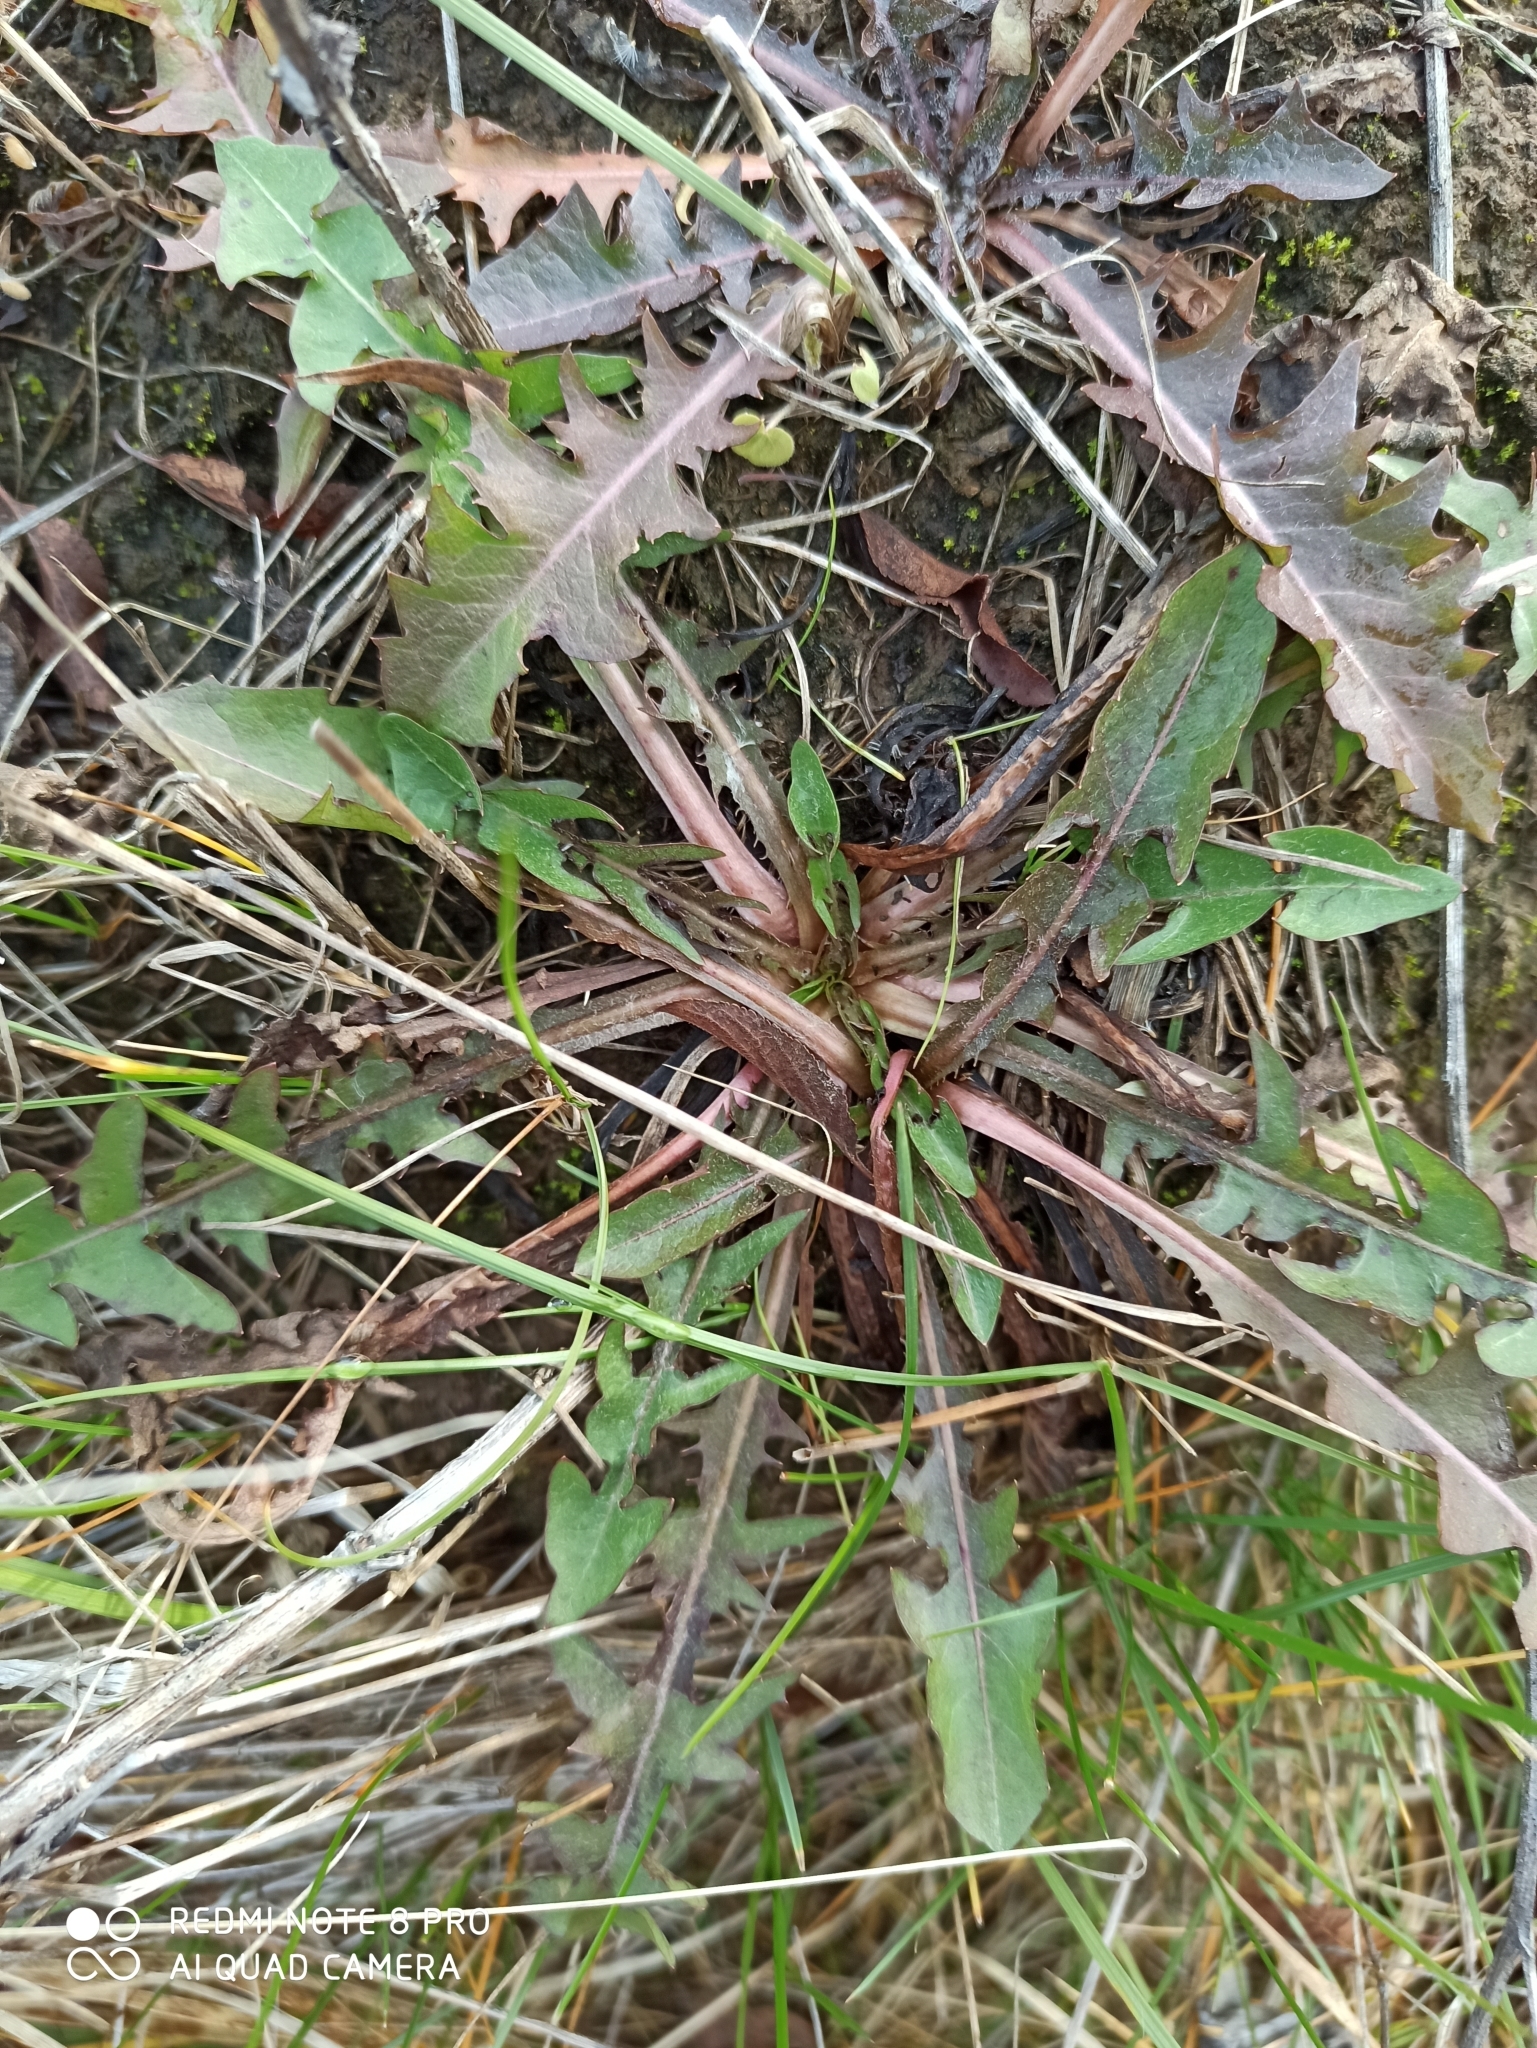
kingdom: Plantae
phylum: Tracheophyta
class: Magnoliopsida
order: Asterales
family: Asteraceae
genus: Taraxacum
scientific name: Taraxacum officinale
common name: Common dandelion
